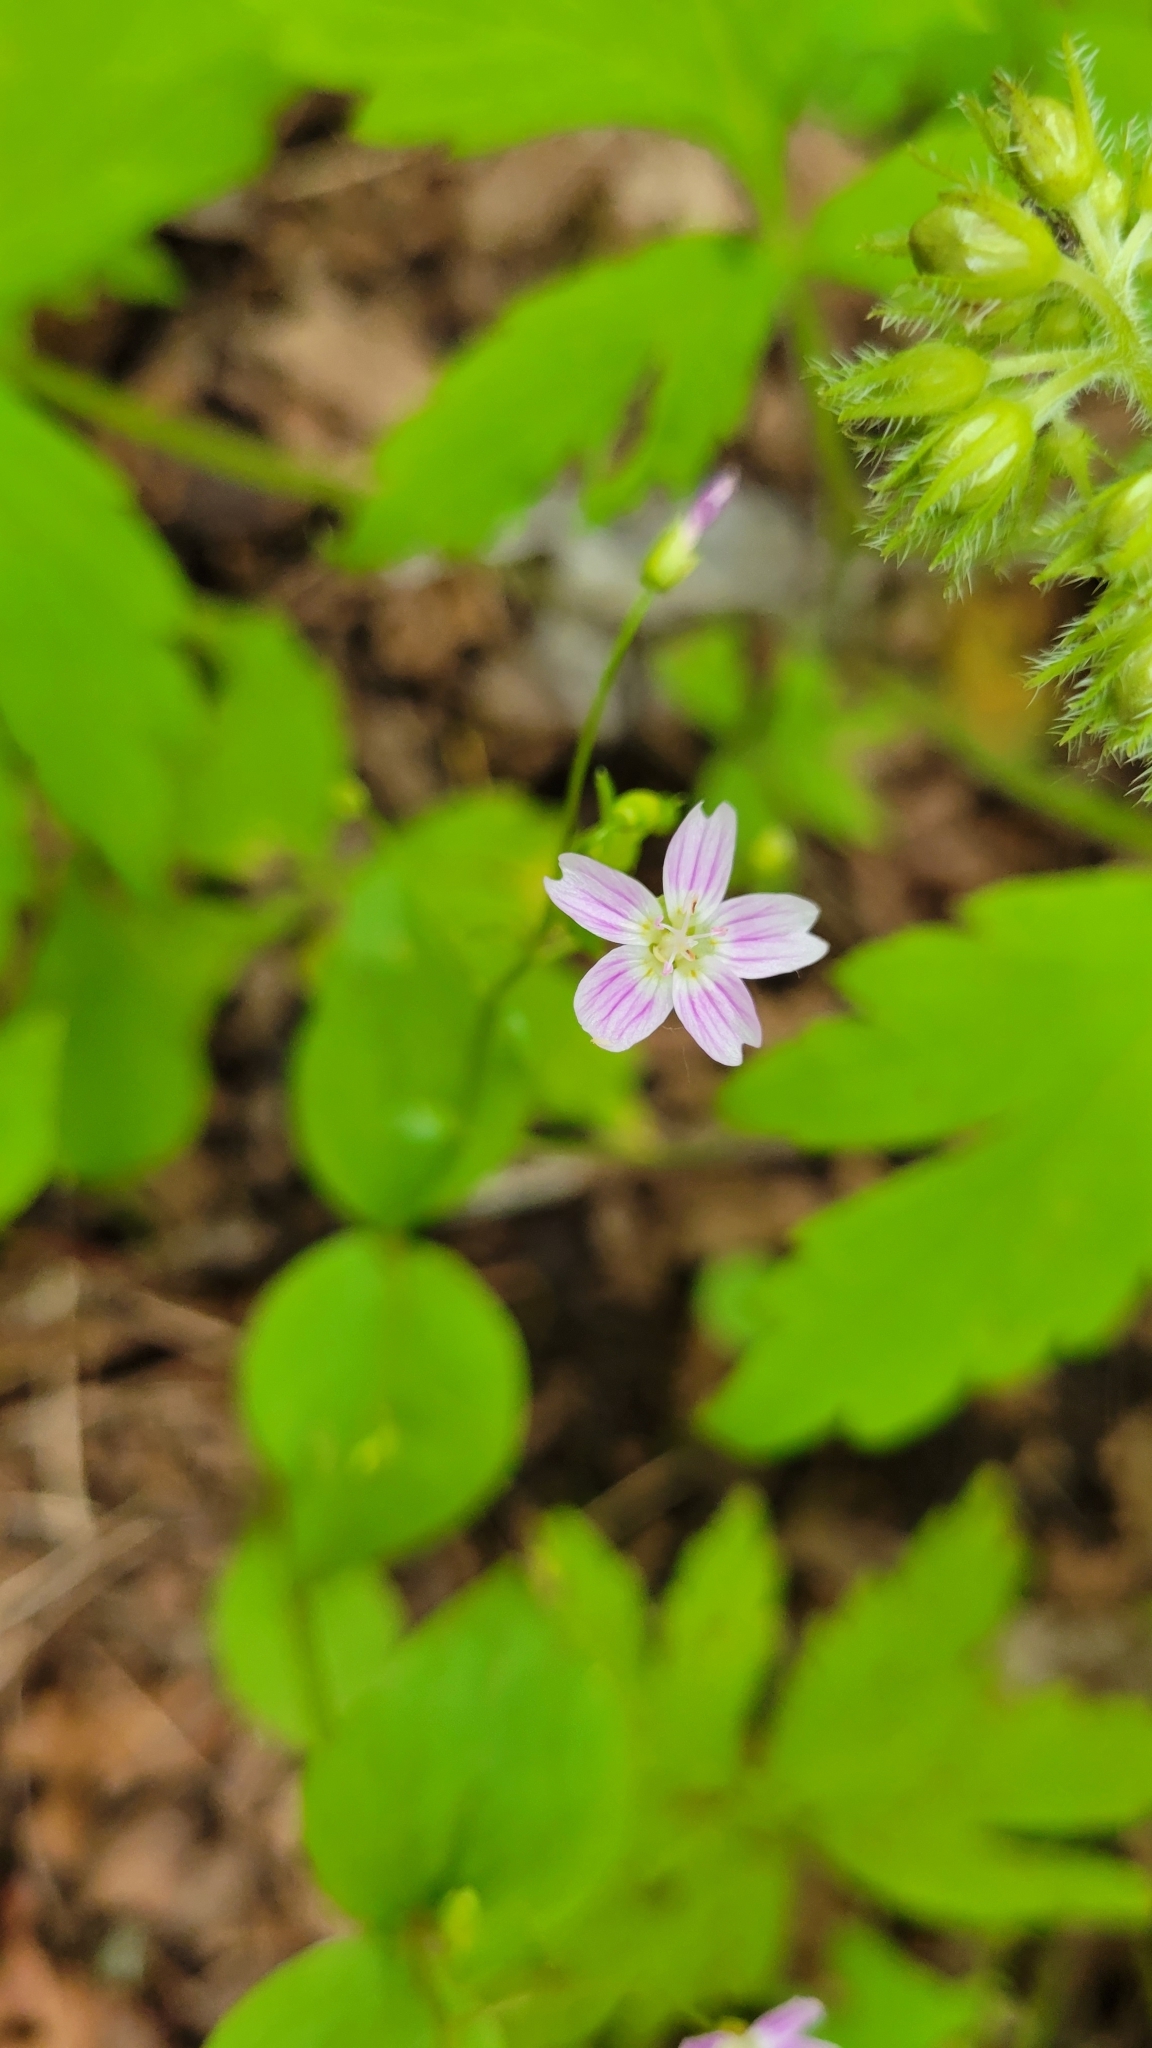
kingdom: Plantae
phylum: Tracheophyta
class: Magnoliopsida
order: Caryophyllales
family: Montiaceae
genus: Claytonia
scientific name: Claytonia sibirica
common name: Pink purslane
